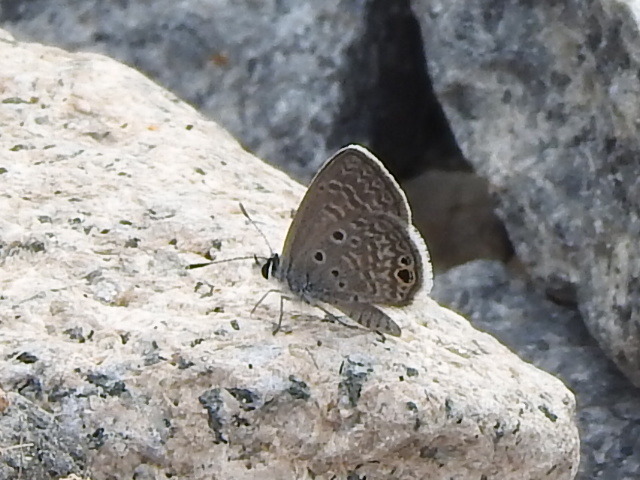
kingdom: Animalia
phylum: Arthropoda
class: Insecta
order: Lepidoptera
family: Lycaenidae
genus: Hemiargus
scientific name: Hemiargus ceraunus
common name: Ceraunus blue
